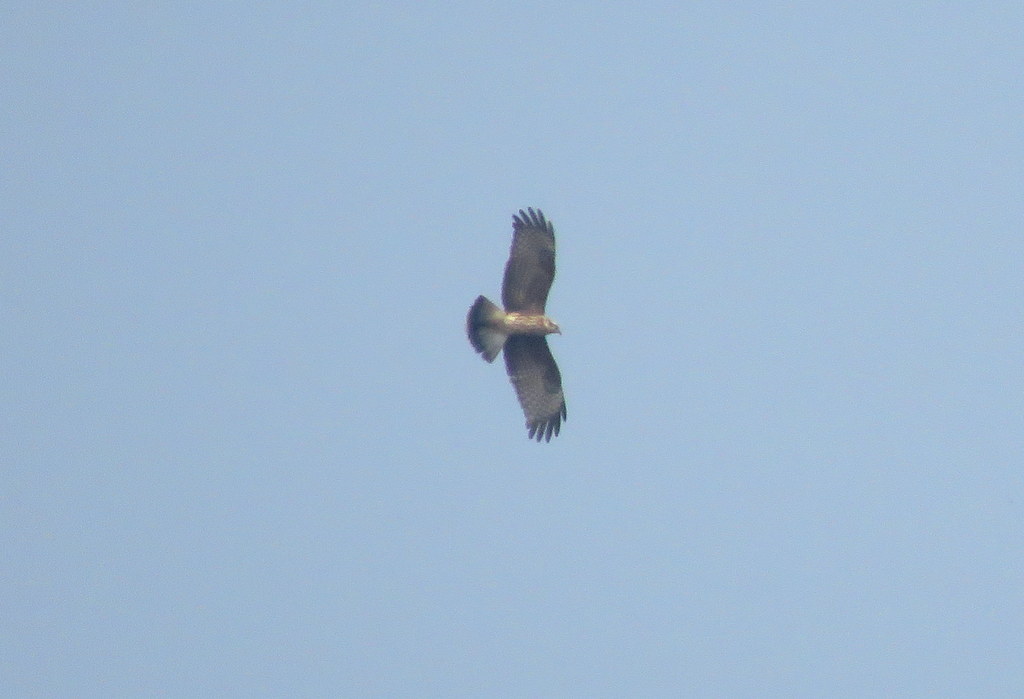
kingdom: Animalia
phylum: Chordata
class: Aves
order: Accipitriformes
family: Accipitridae
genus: Rostrhamus
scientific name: Rostrhamus sociabilis
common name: Snail kite
